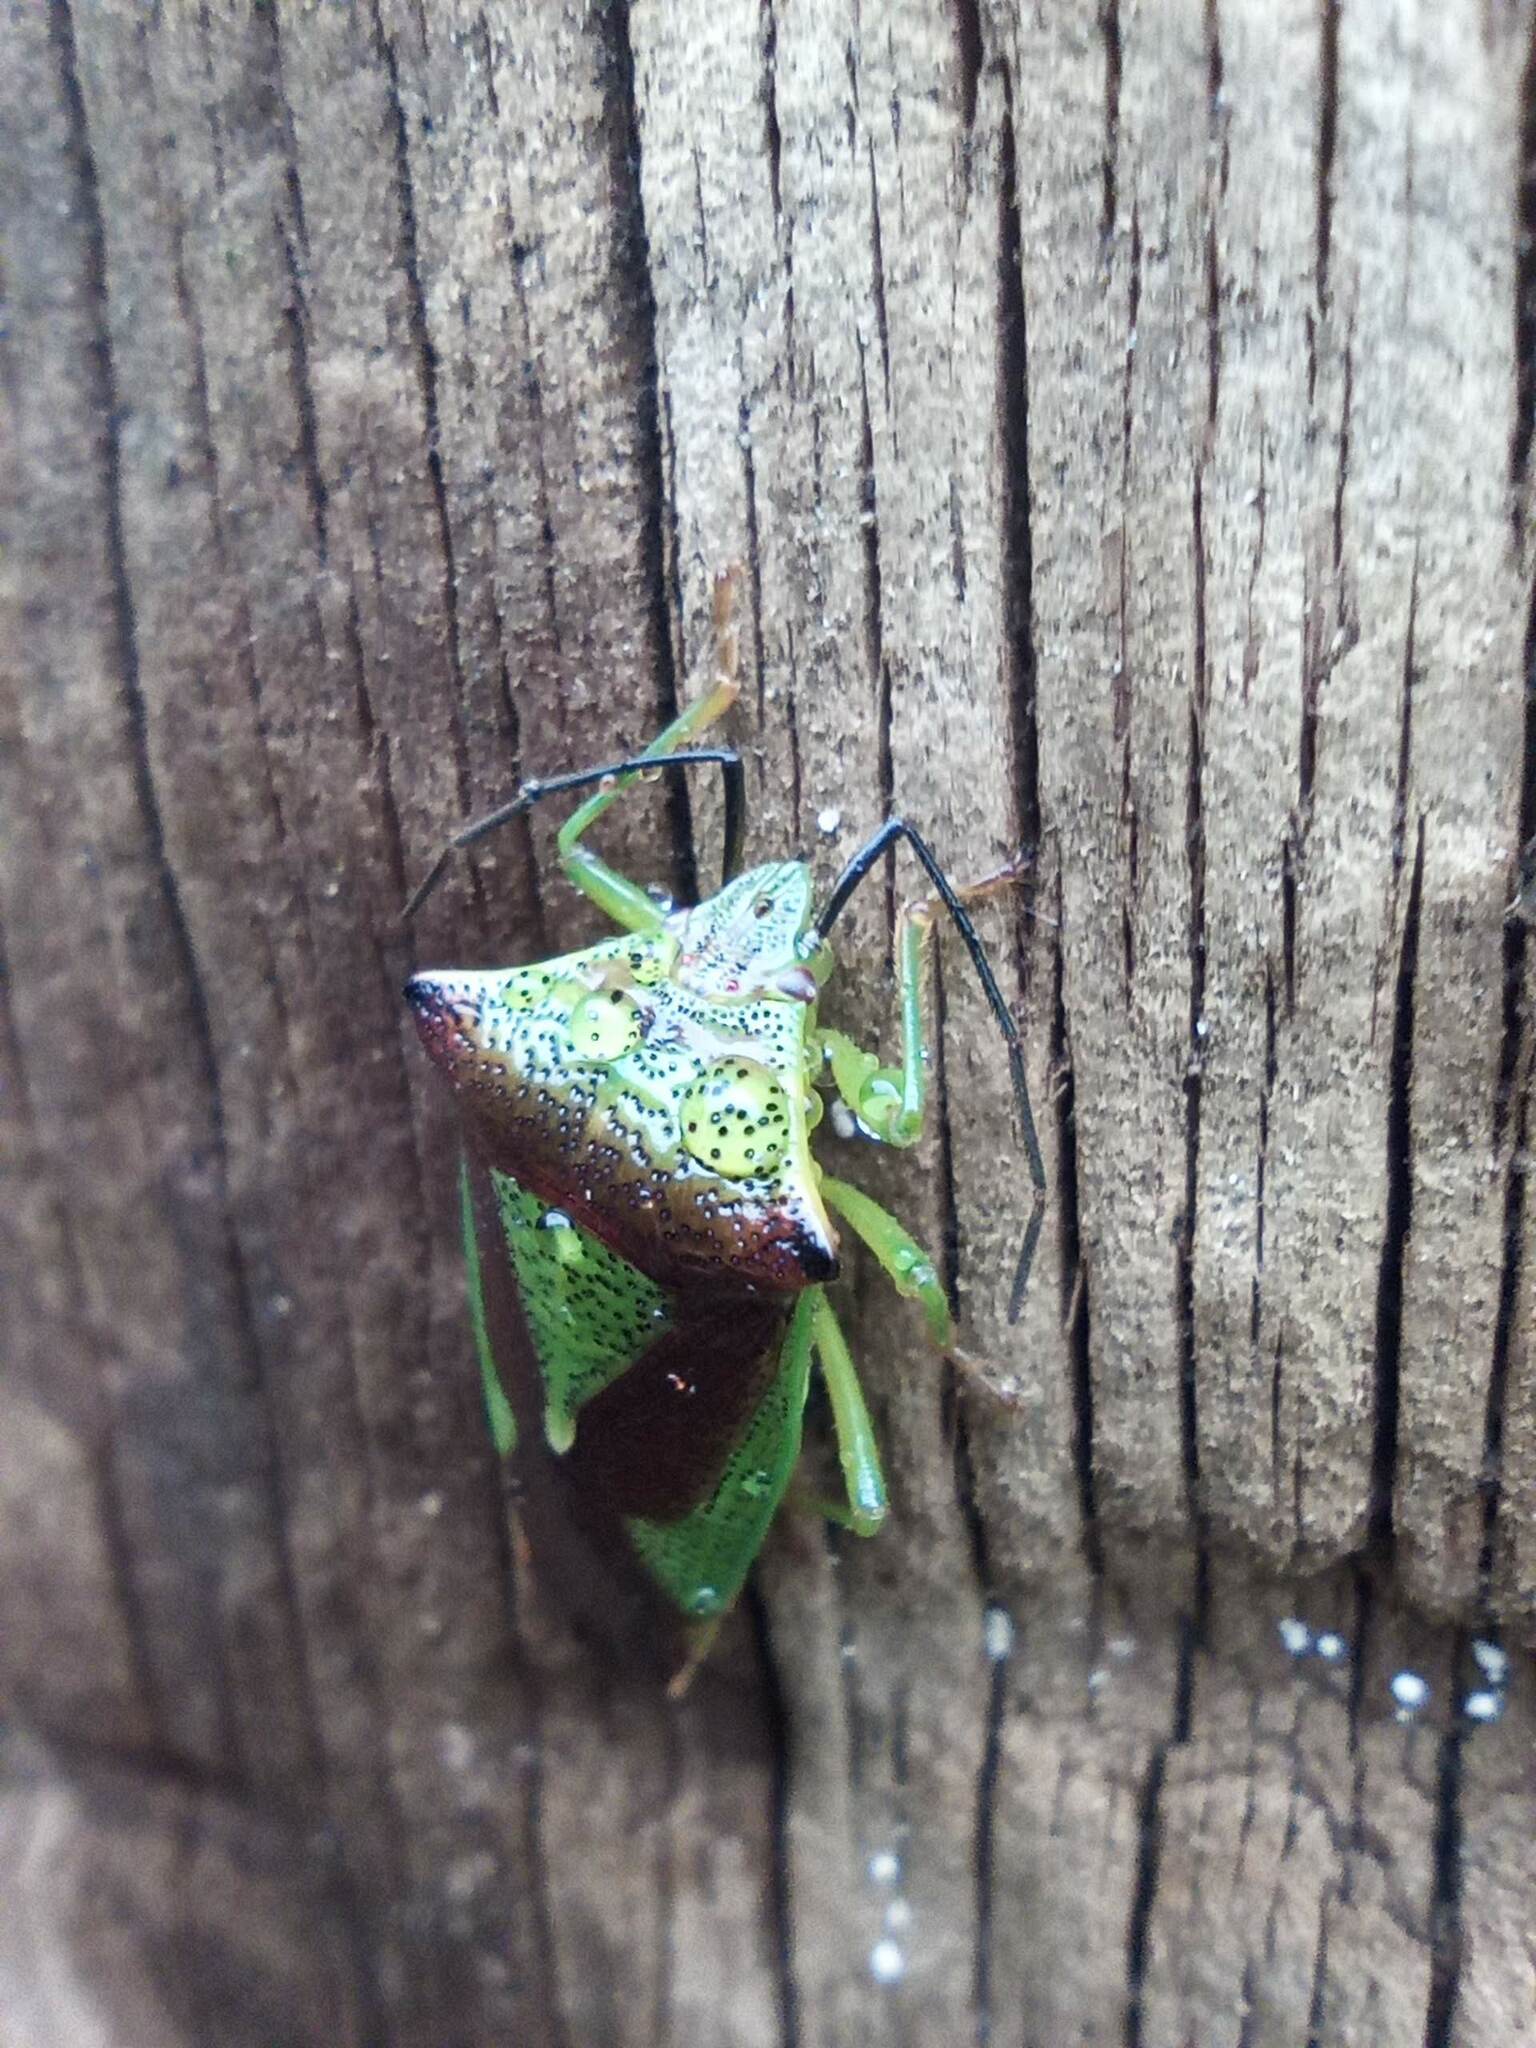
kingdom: Animalia
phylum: Arthropoda
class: Insecta
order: Hemiptera
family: Acanthosomatidae
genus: Acanthosoma
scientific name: Acanthosoma haemorrhoidale
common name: Hawthorn shieldbug
